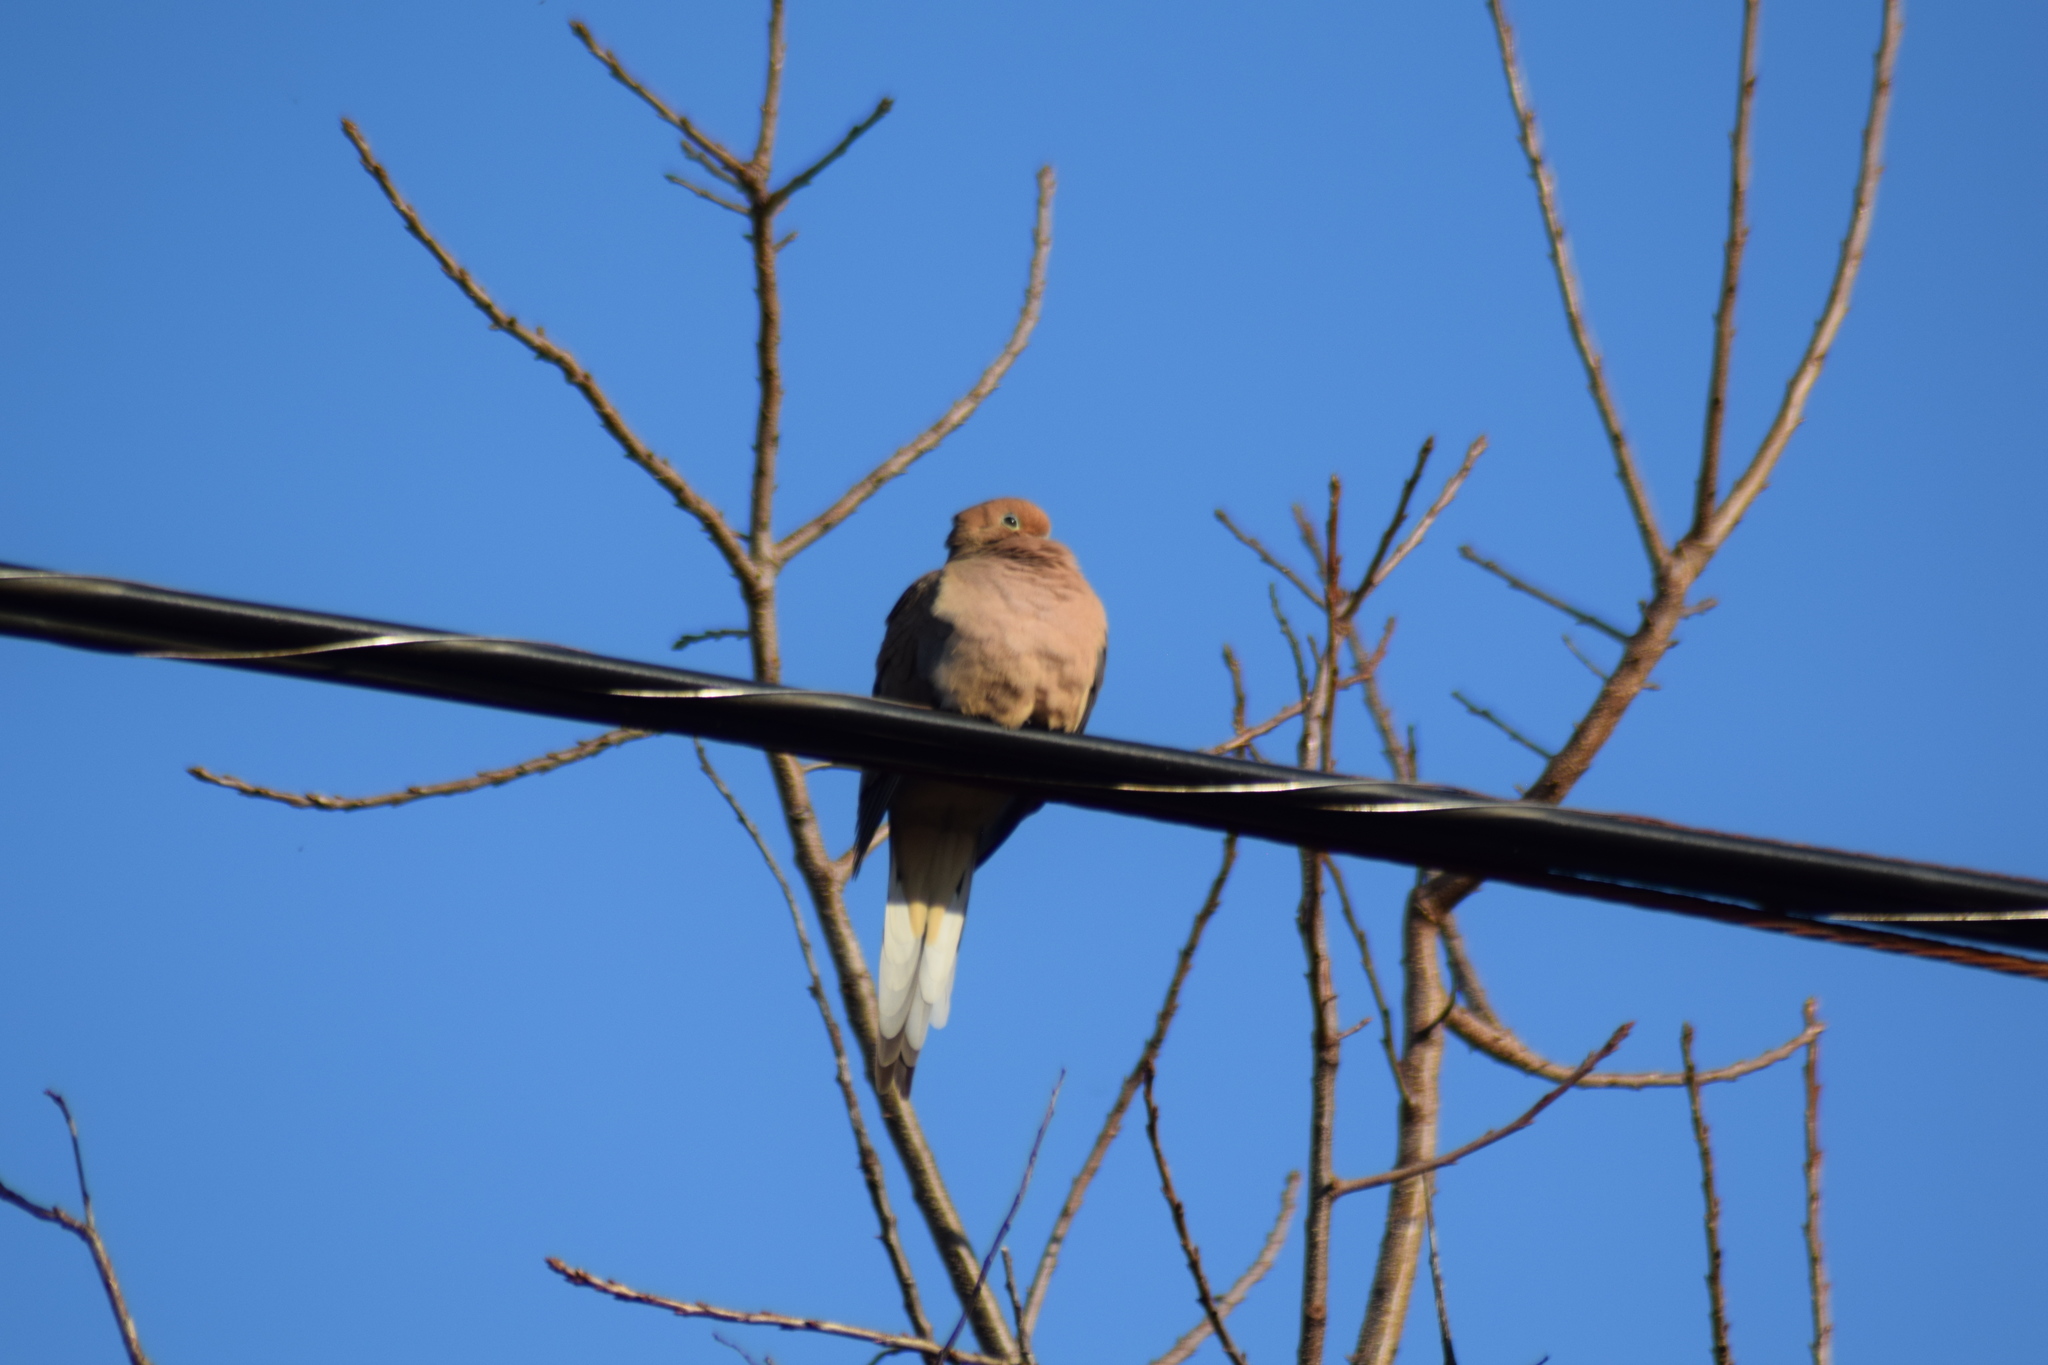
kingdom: Animalia
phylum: Chordata
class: Aves
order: Columbiformes
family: Columbidae
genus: Zenaida
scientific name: Zenaida macroura
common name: Mourning dove
